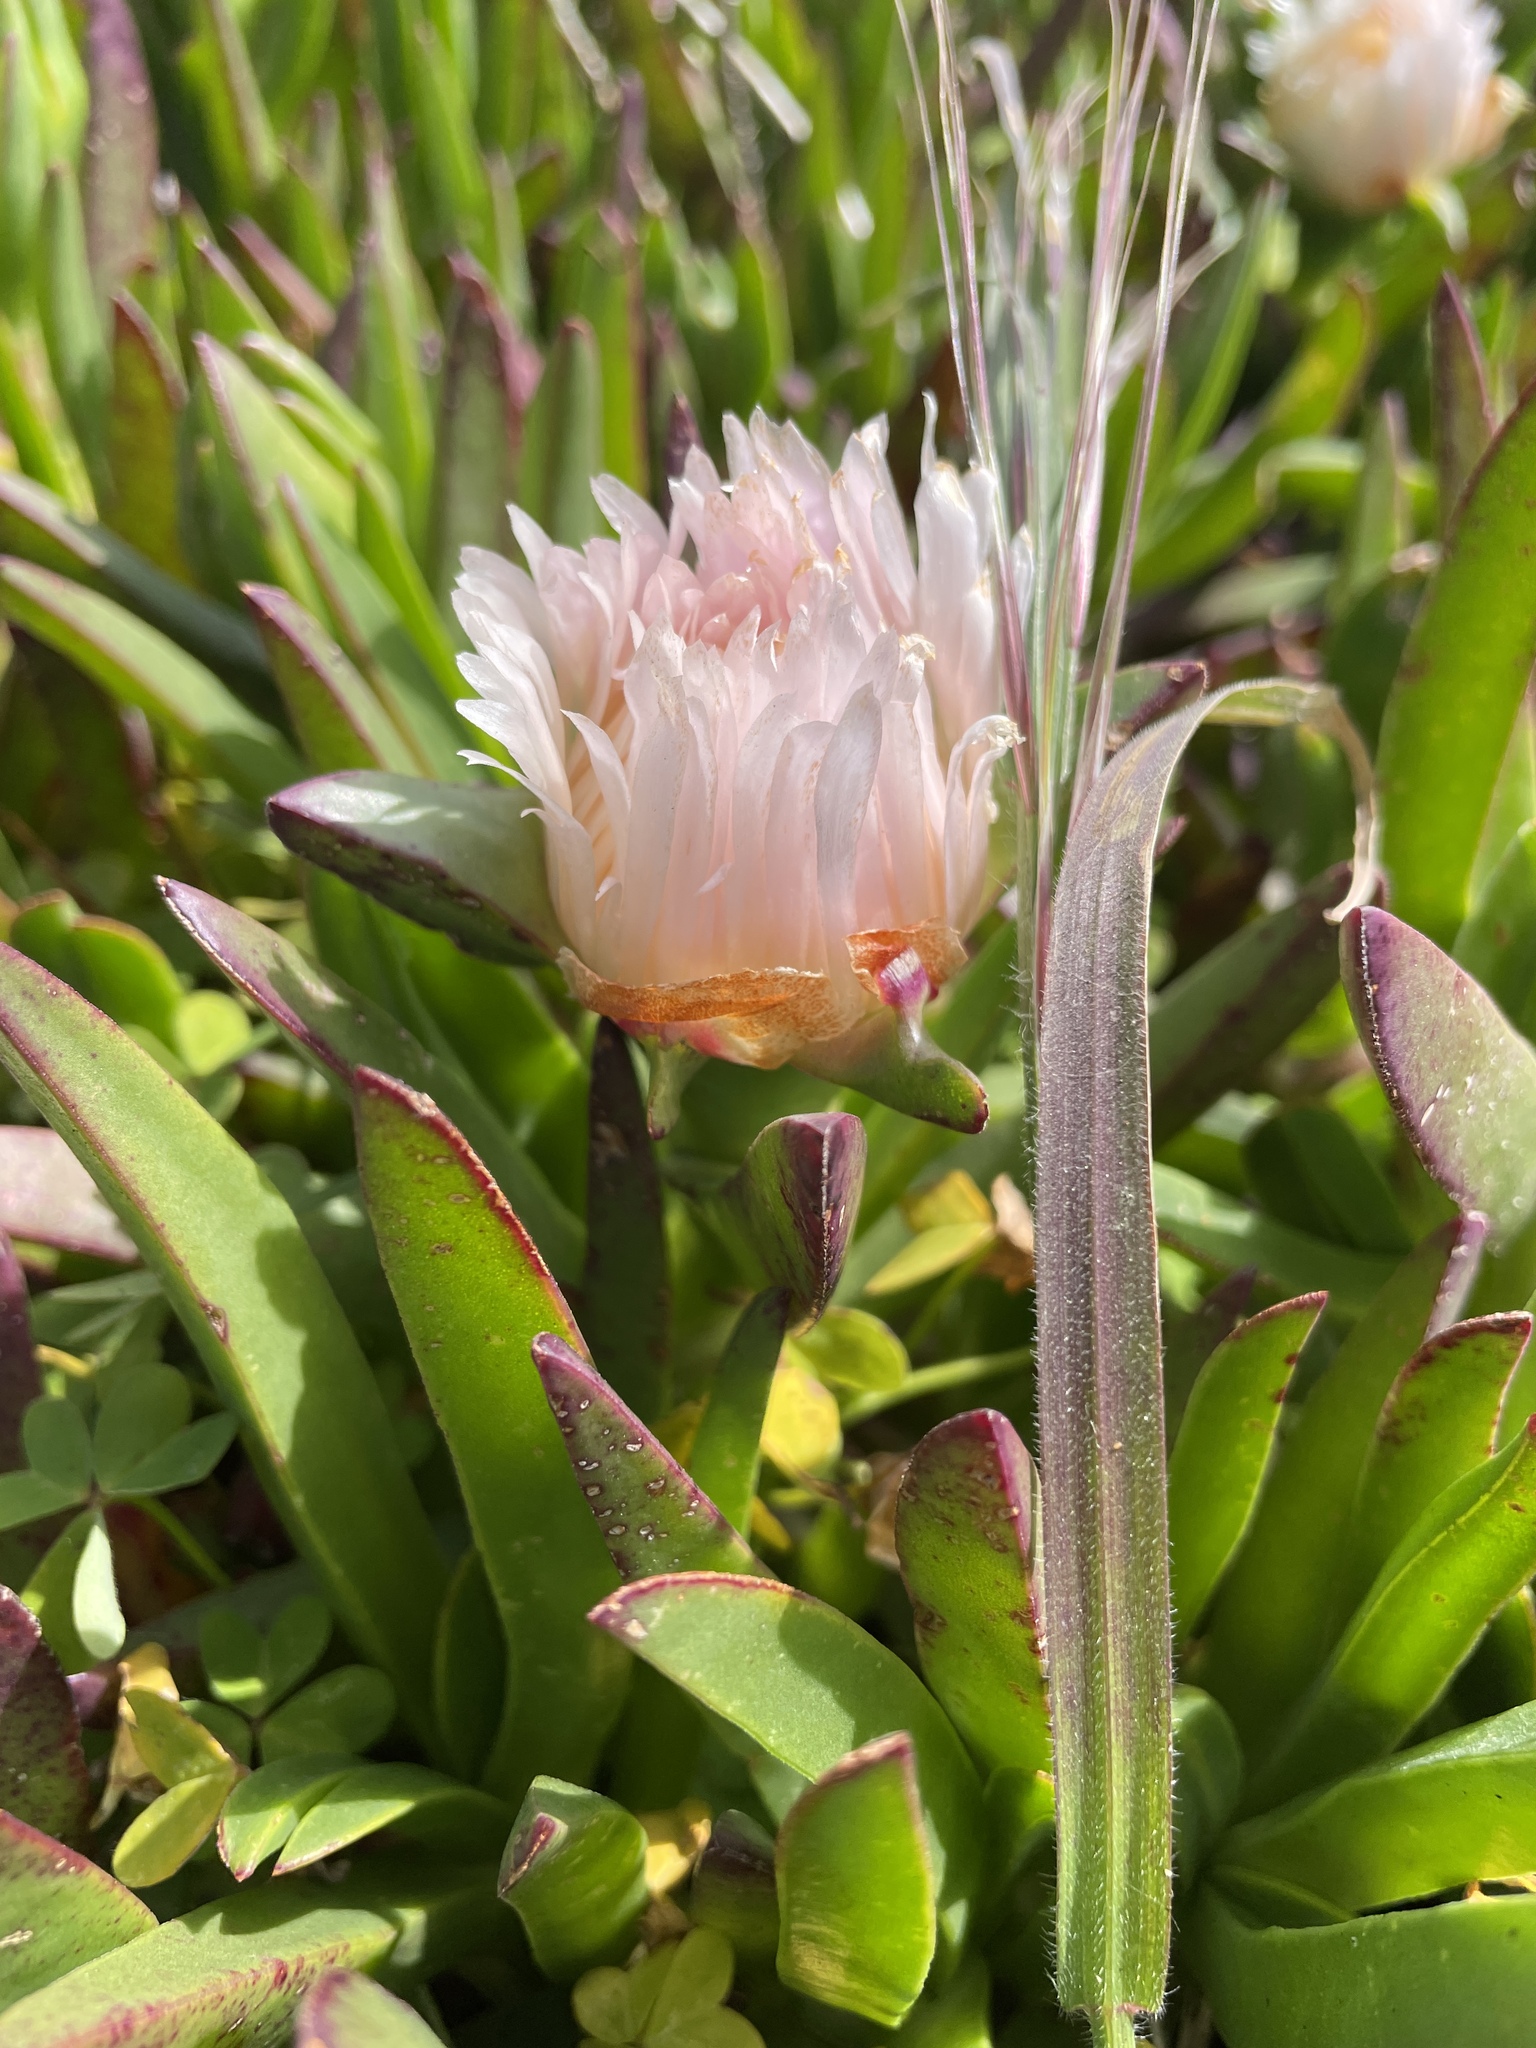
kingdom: Plantae
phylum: Tracheophyta
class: Magnoliopsida
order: Caryophyllales
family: Aizoaceae
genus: Carpobrotus
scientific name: Carpobrotus edulis
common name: Hottentot-fig
